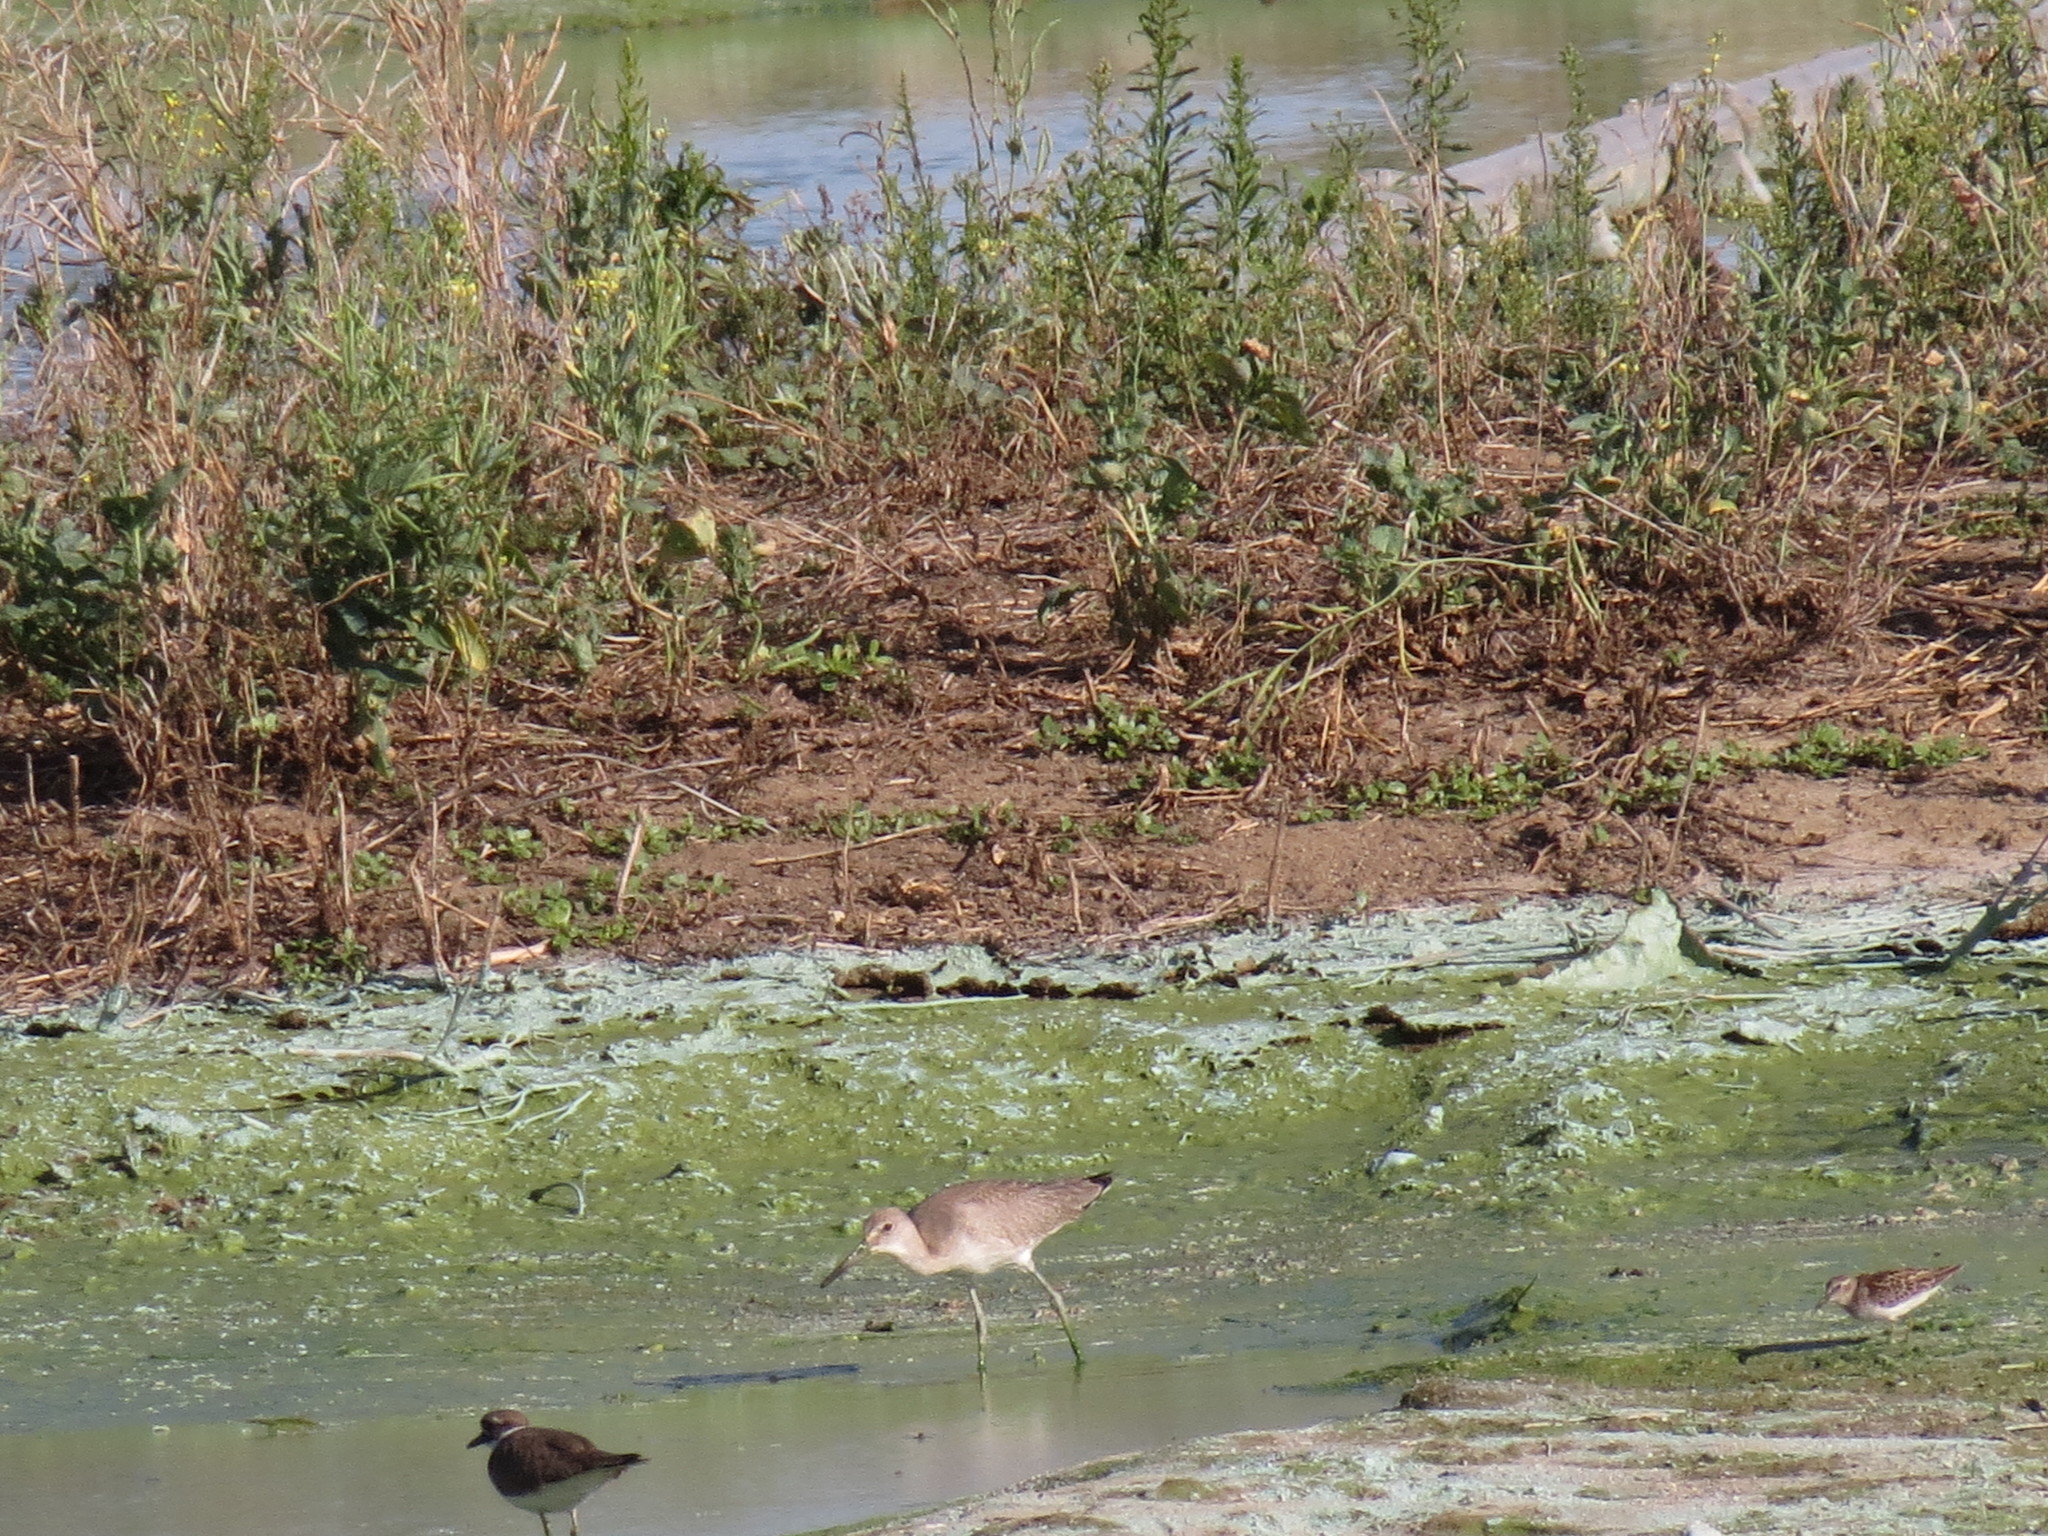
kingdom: Animalia
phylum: Chordata
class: Aves
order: Charadriiformes
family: Scolopacidae
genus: Tringa
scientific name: Tringa semipalmata
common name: Willet
